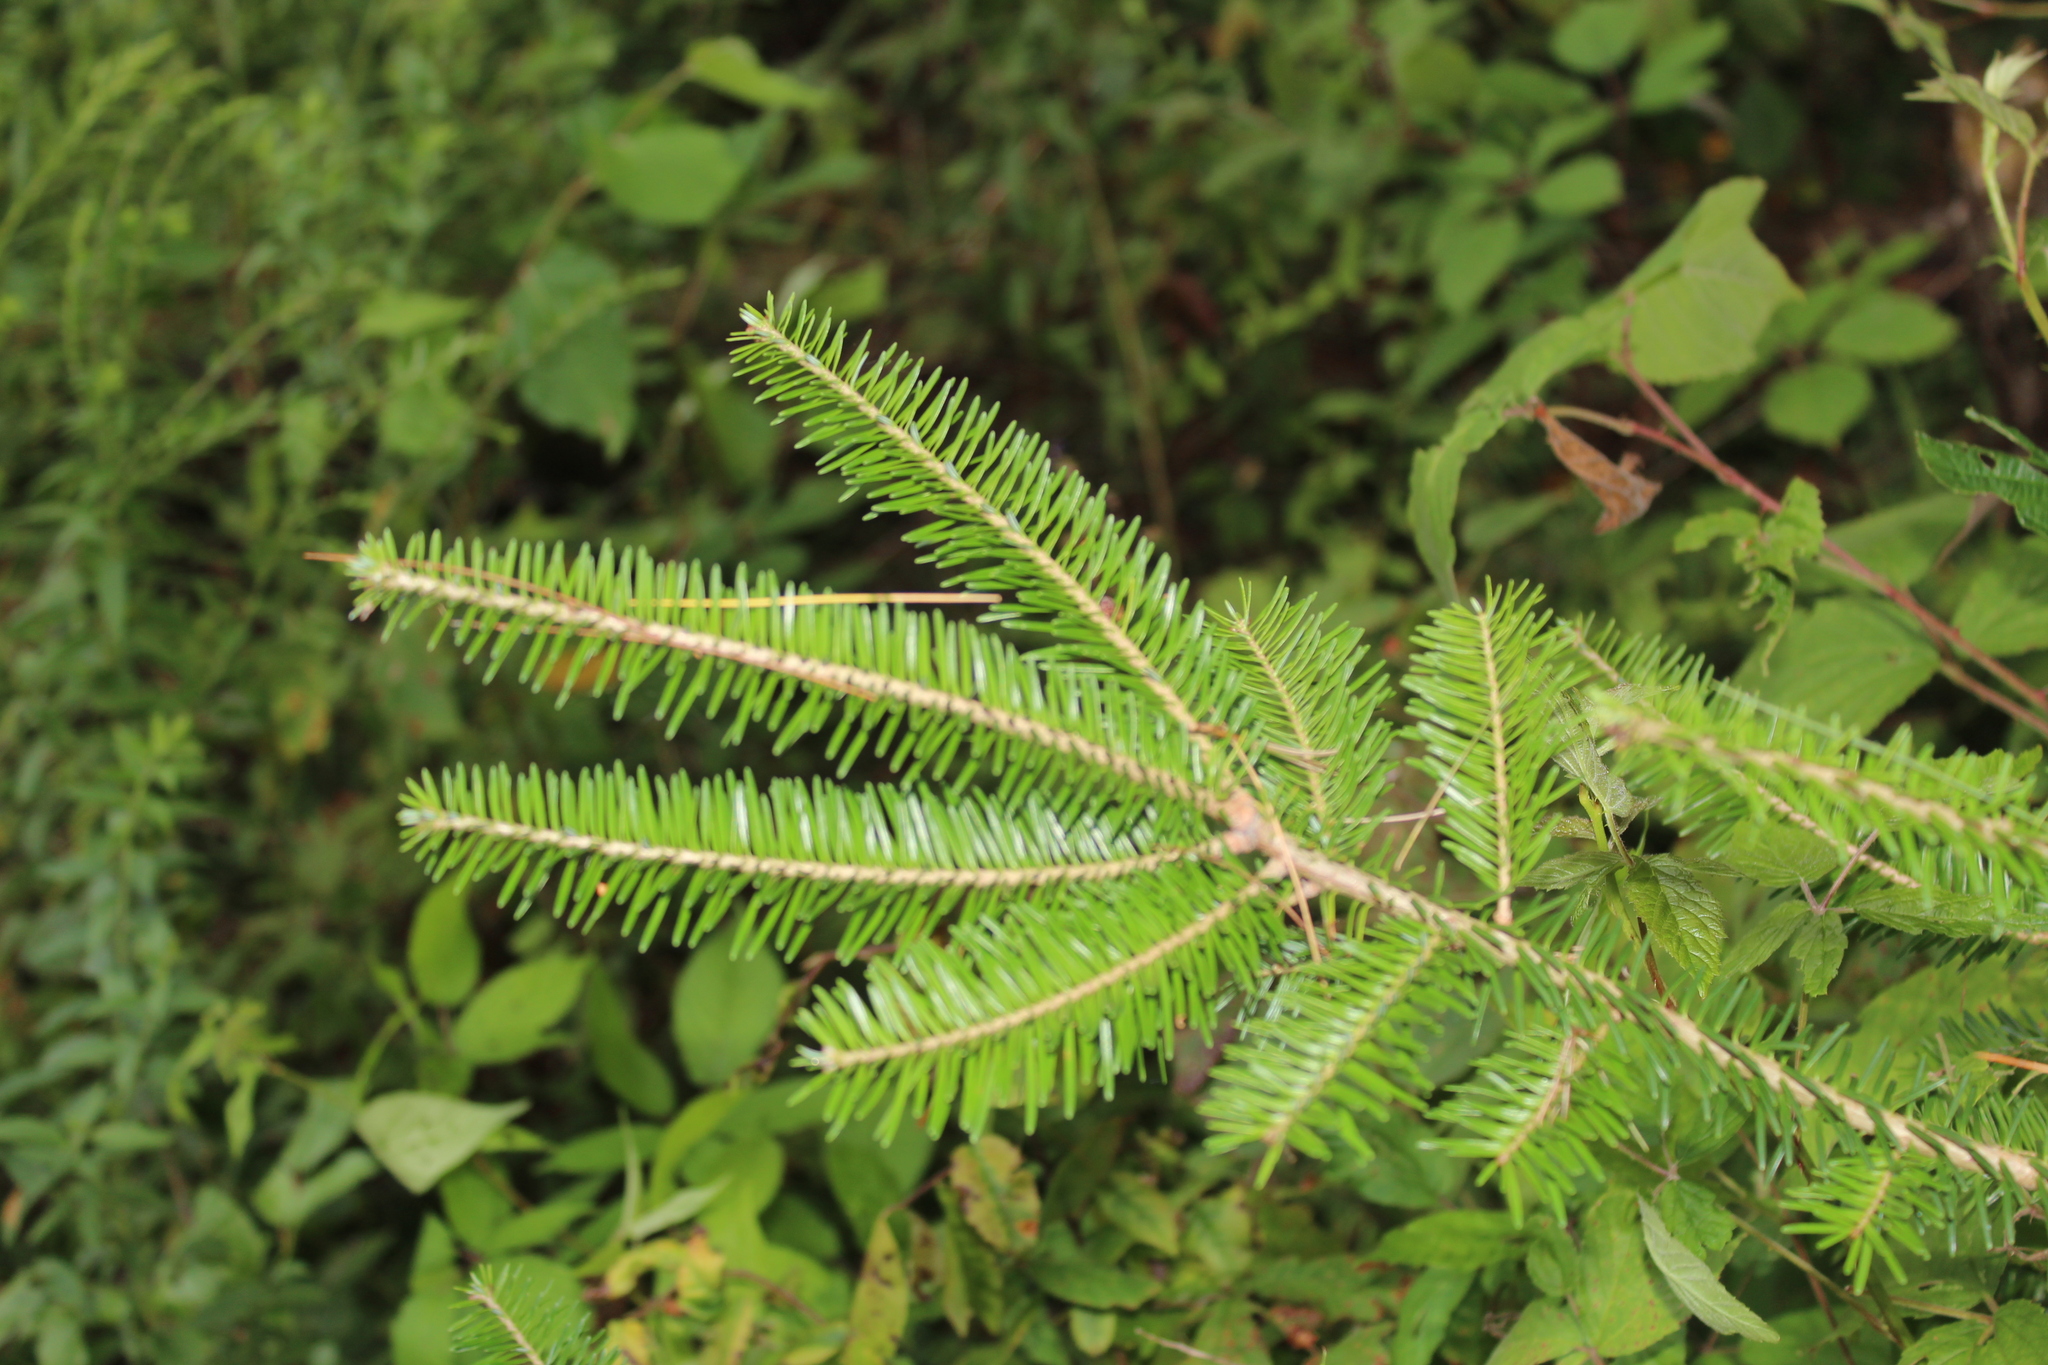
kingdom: Plantae
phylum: Tracheophyta
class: Pinopsida
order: Pinales
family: Pinaceae
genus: Abies
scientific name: Abies balsamea
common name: Balsam fir
